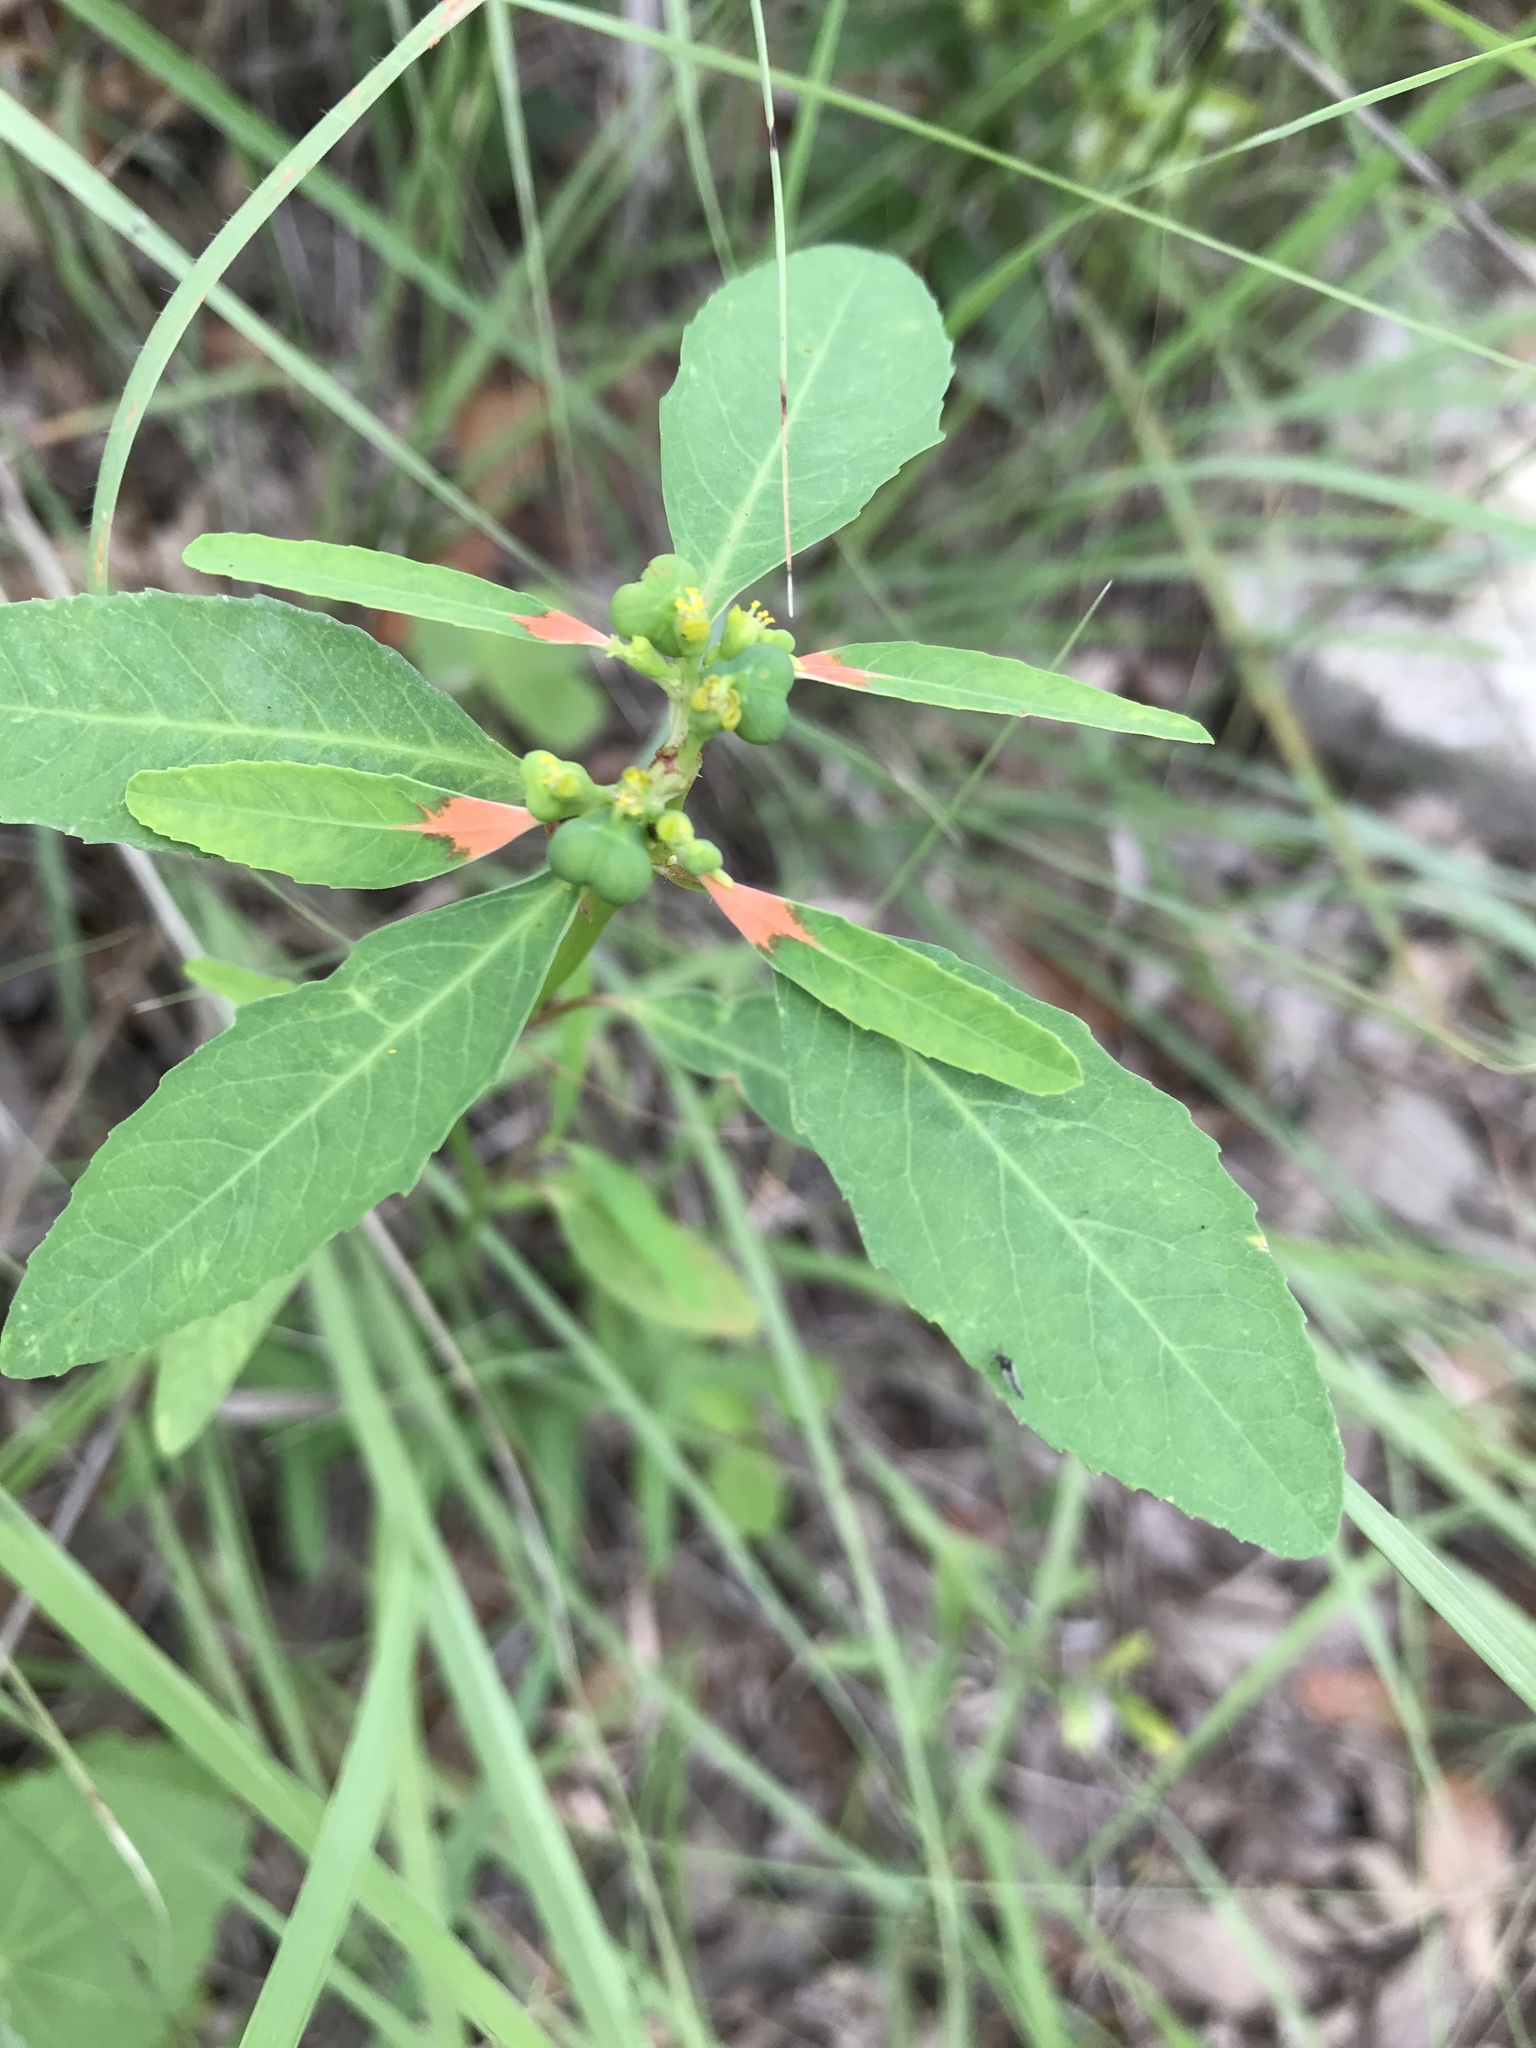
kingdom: Plantae
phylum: Tracheophyta
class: Magnoliopsida
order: Malpighiales
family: Euphorbiaceae
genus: Euphorbia
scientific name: Euphorbia heterophylla
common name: Mexican fireplant
